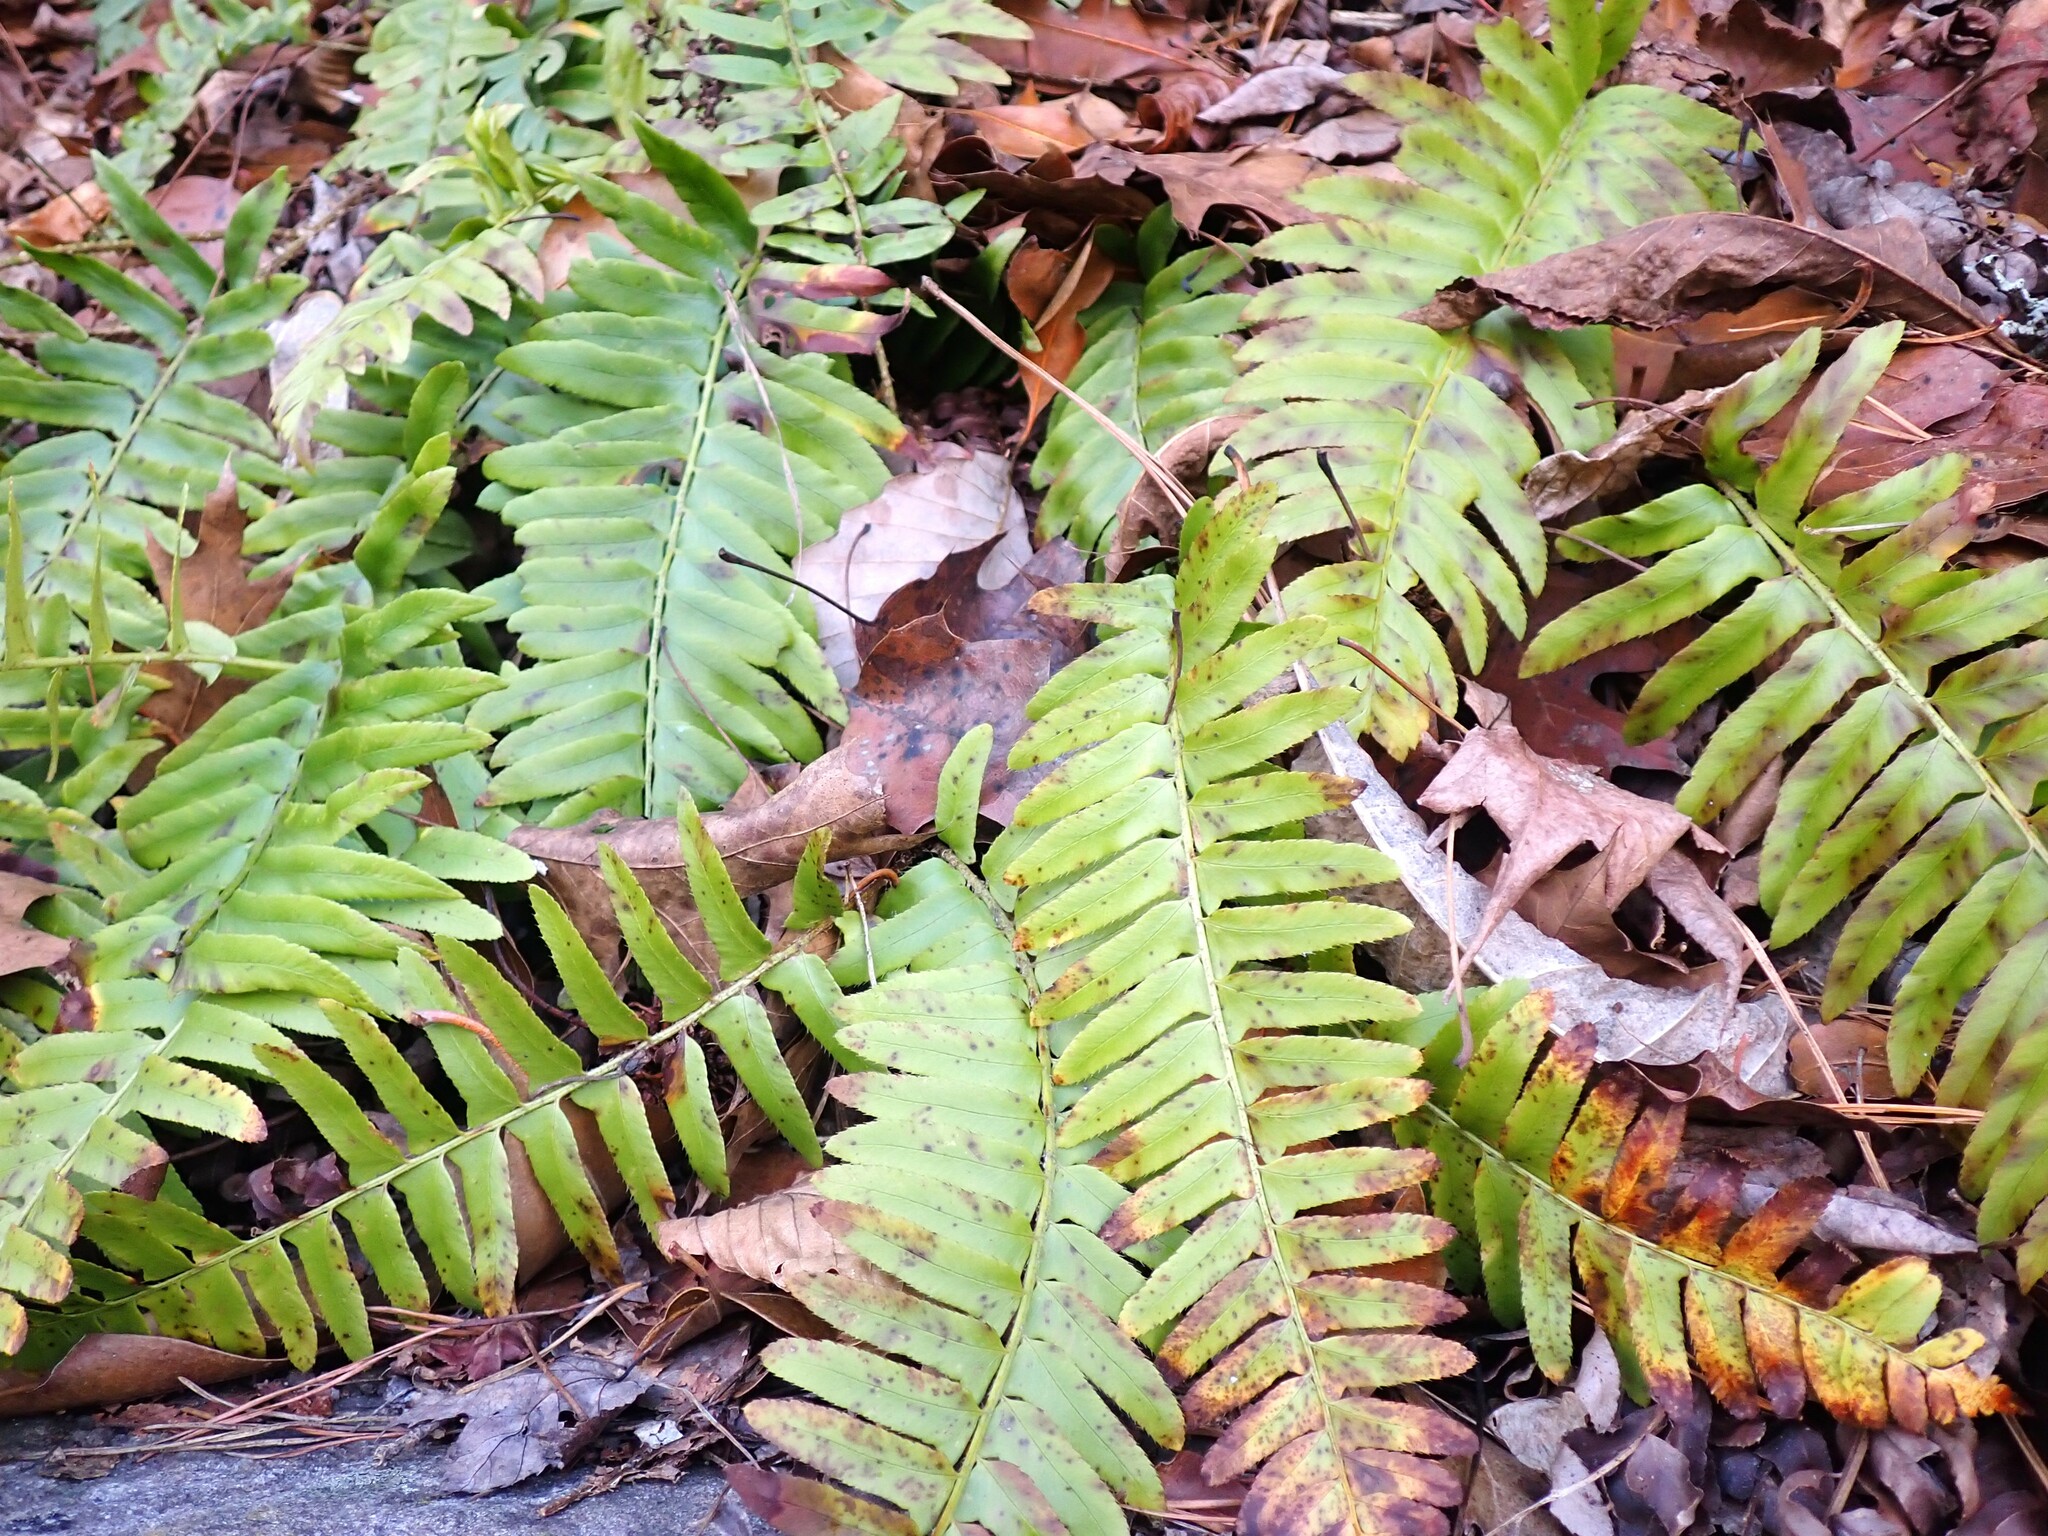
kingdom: Plantae
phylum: Tracheophyta
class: Polypodiopsida
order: Polypodiales
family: Dryopteridaceae
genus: Polystichum
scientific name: Polystichum acrostichoides
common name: Christmas fern
